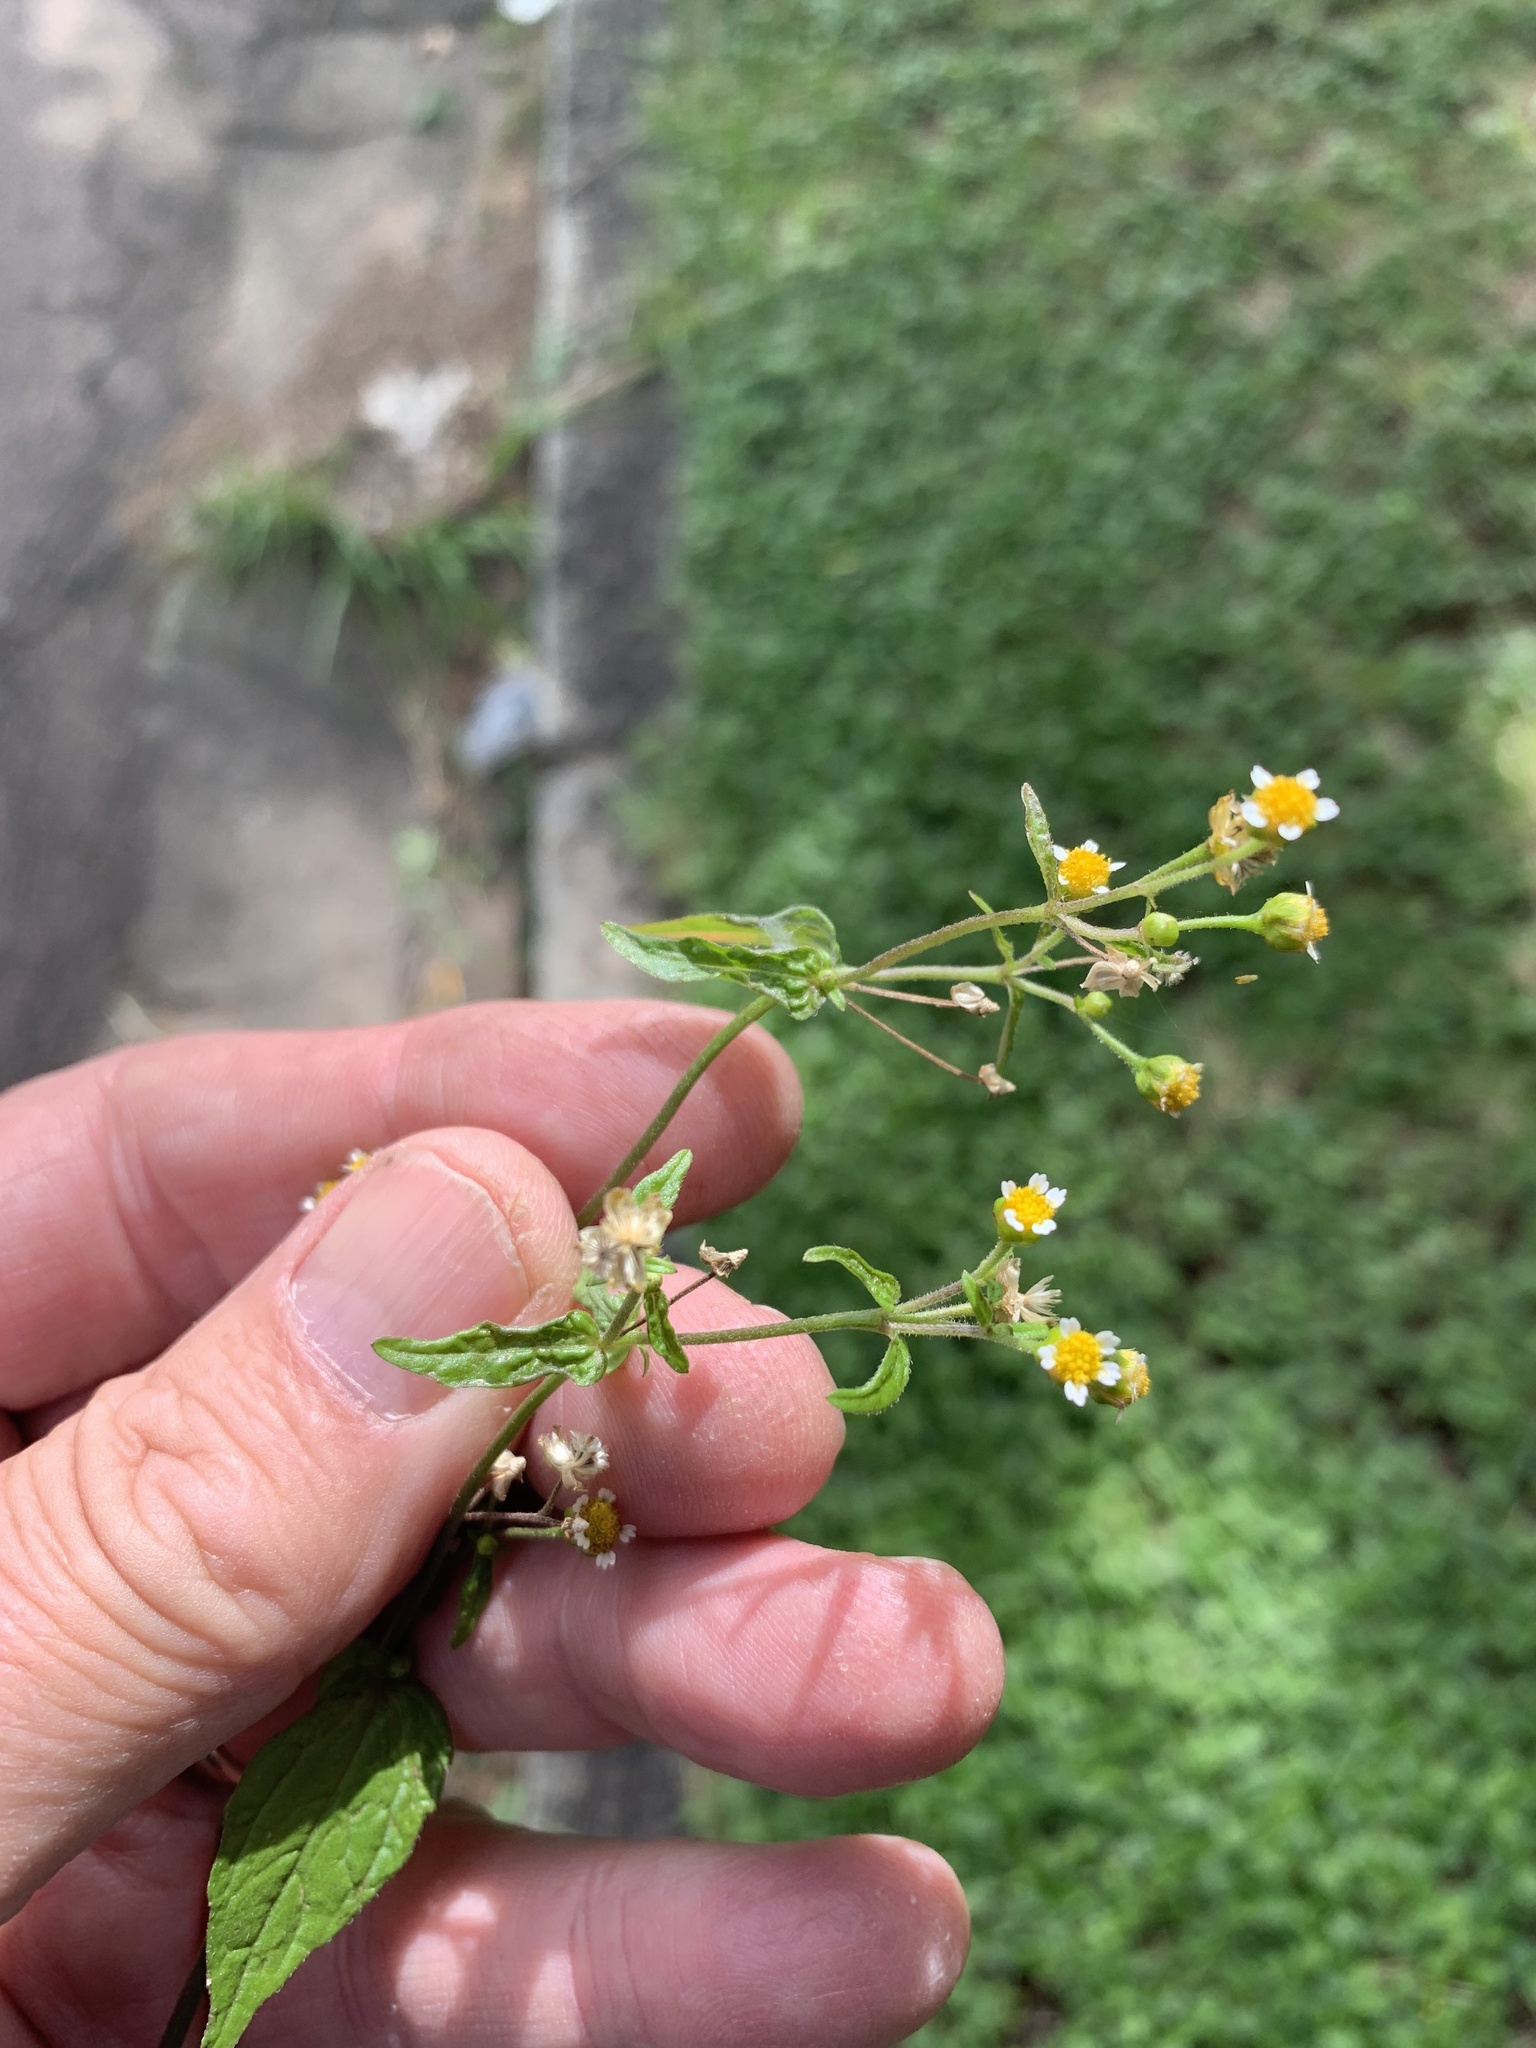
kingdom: Plantae
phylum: Tracheophyta
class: Magnoliopsida
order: Asterales
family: Asteraceae
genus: Galinsoga
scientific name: Galinsoga parviflora
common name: Gallant soldier
